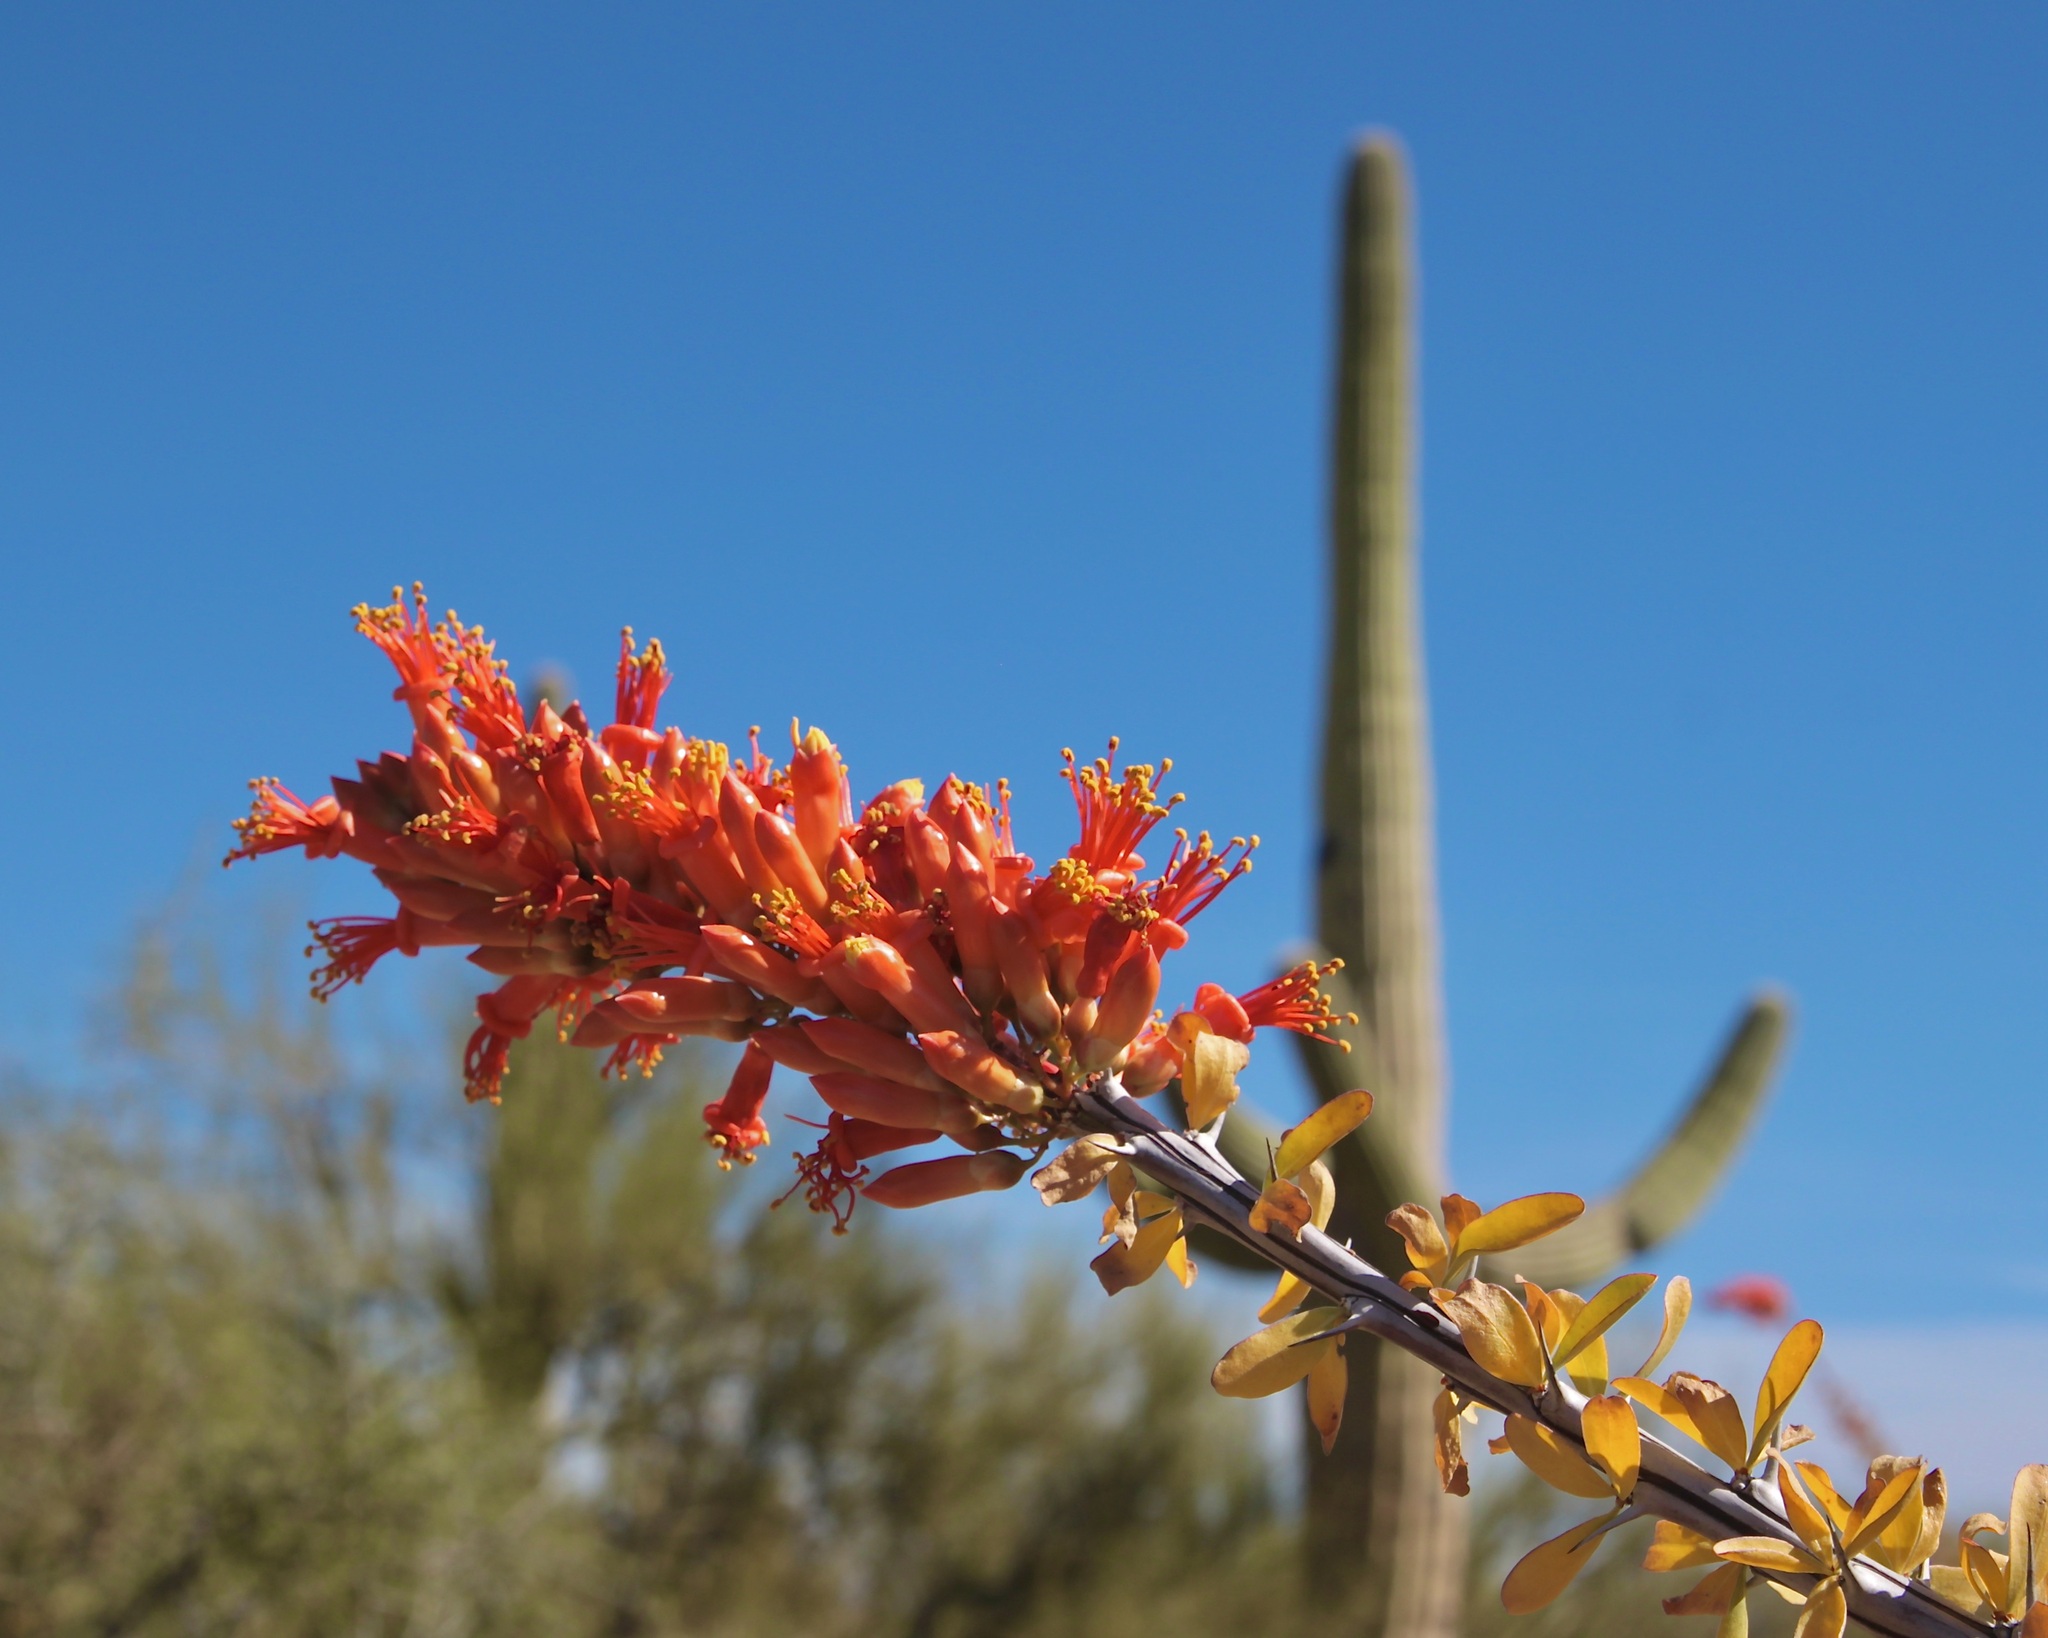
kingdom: Plantae
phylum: Tracheophyta
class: Magnoliopsida
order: Ericales
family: Fouquieriaceae
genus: Fouquieria
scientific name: Fouquieria splendens
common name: Vine-cactus
